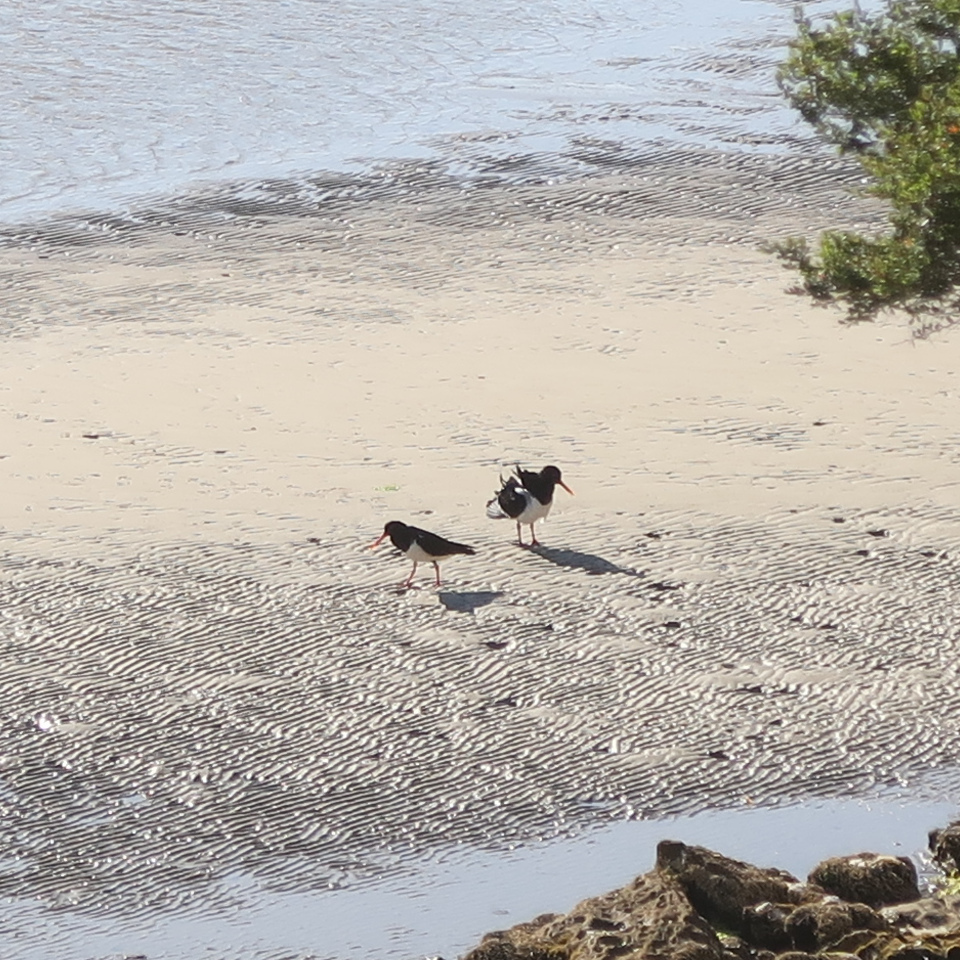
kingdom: Animalia
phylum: Chordata
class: Aves
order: Charadriiformes
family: Haematopodidae
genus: Haematopus
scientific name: Haematopus longirostris
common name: Pied oystercatcher
